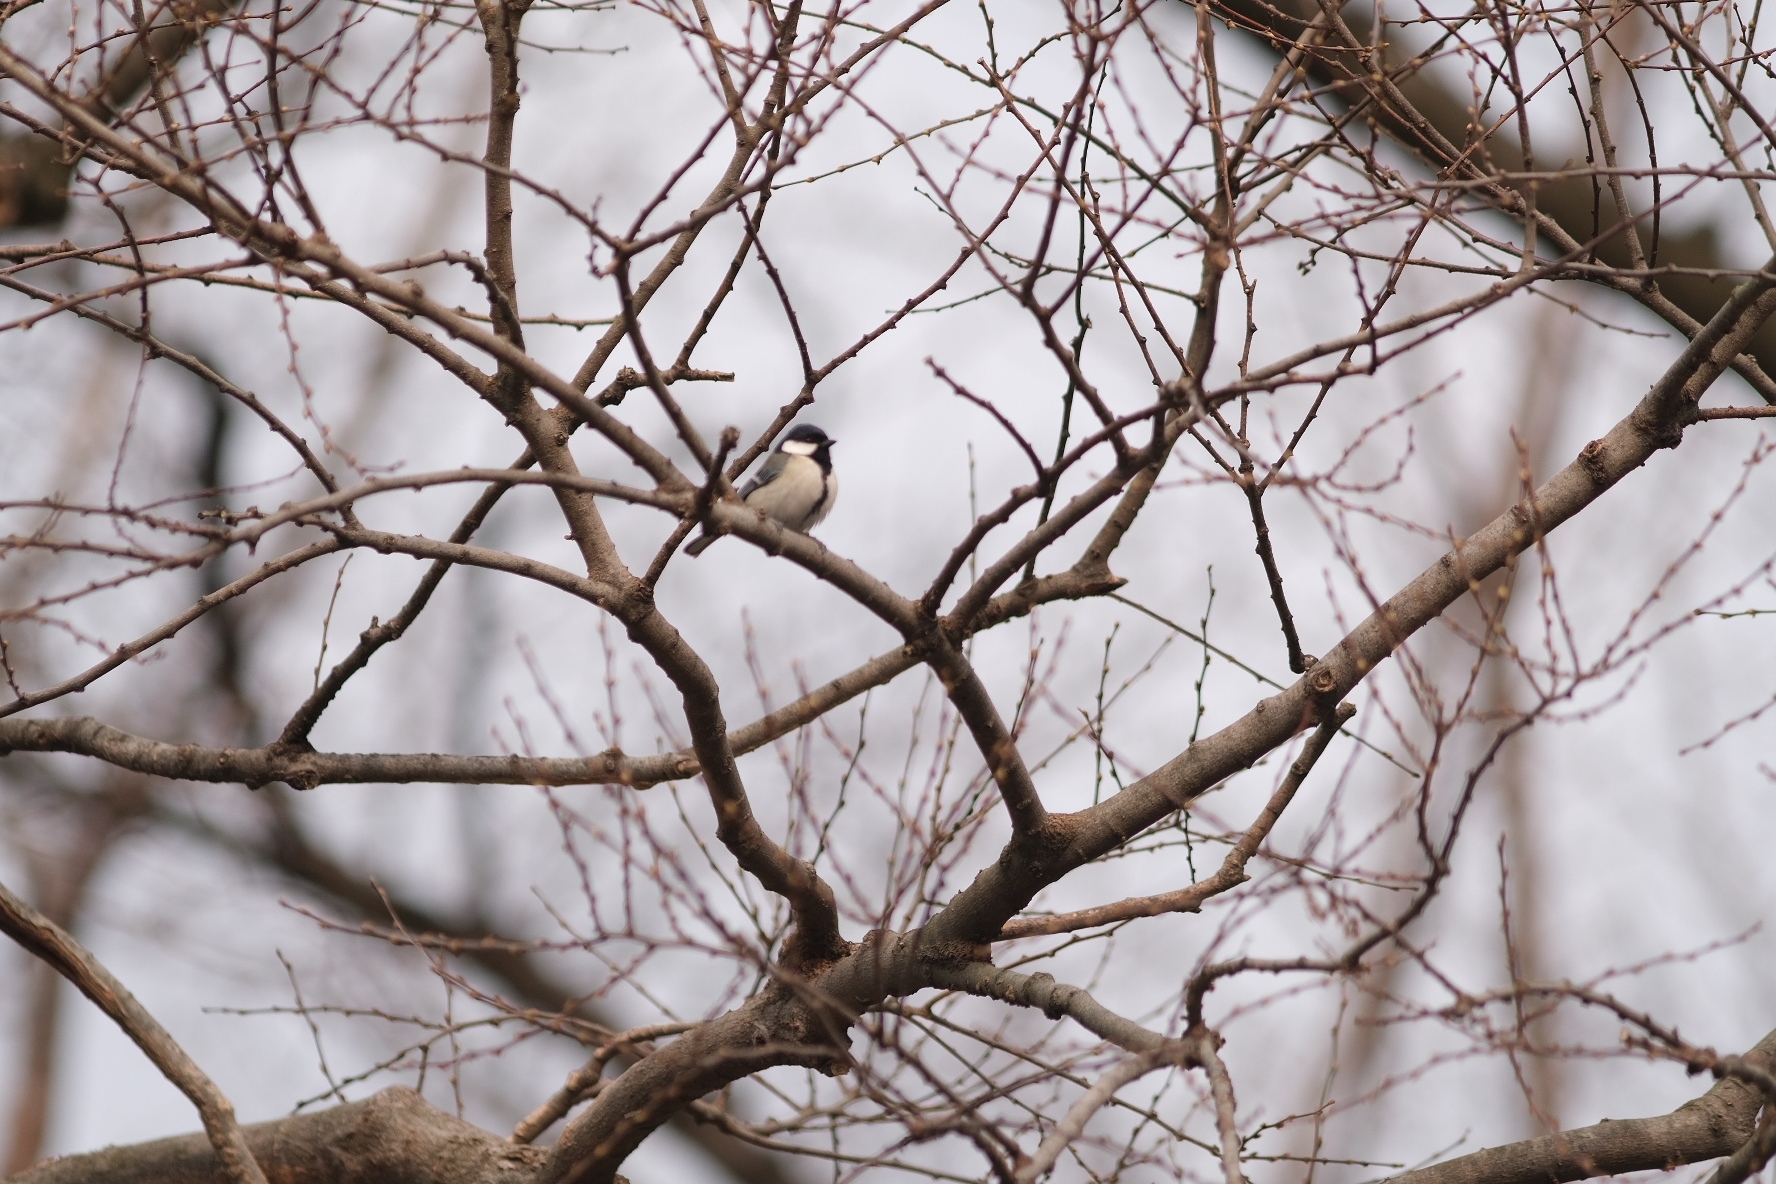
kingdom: Animalia
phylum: Chordata
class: Aves
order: Passeriformes
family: Paridae
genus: Parus
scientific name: Parus minor
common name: Japanese tit
